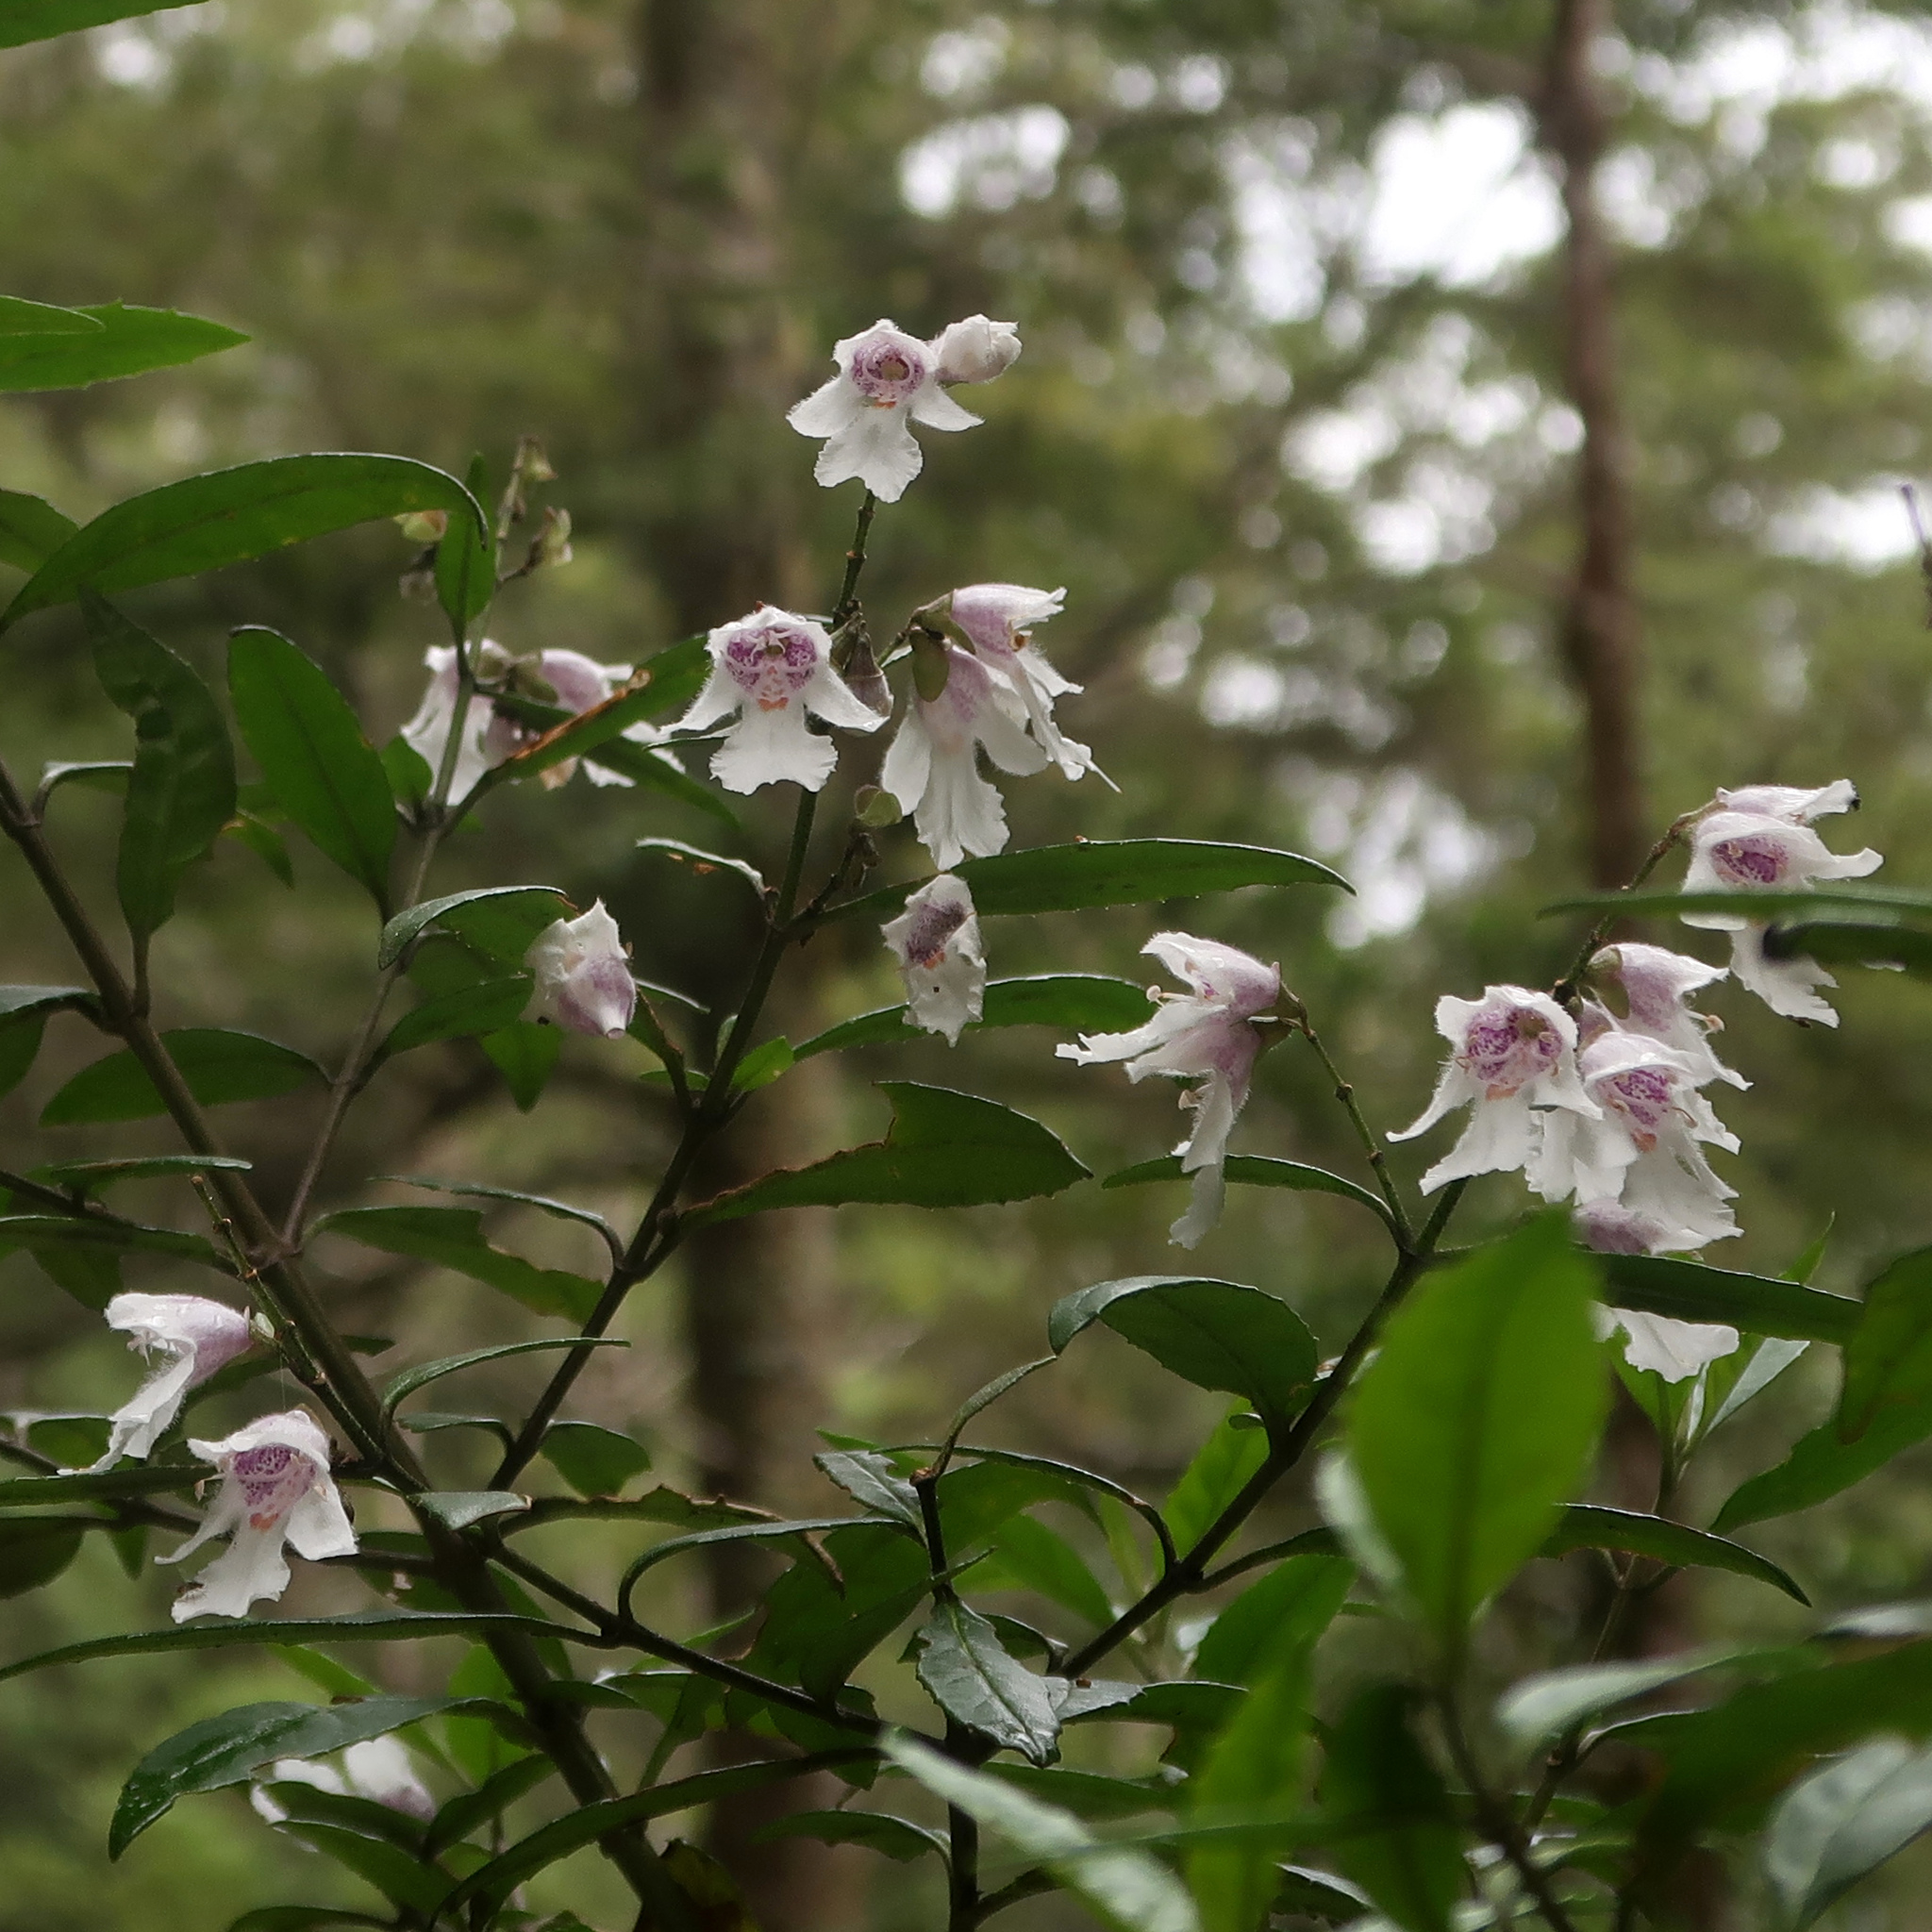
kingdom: Plantae
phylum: Tracheophyta
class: Magnoliopsida
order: Lamiales
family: Lamiaceae
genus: Prostanthera
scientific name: Prostanthera lasianthos
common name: Mountain-lilac
